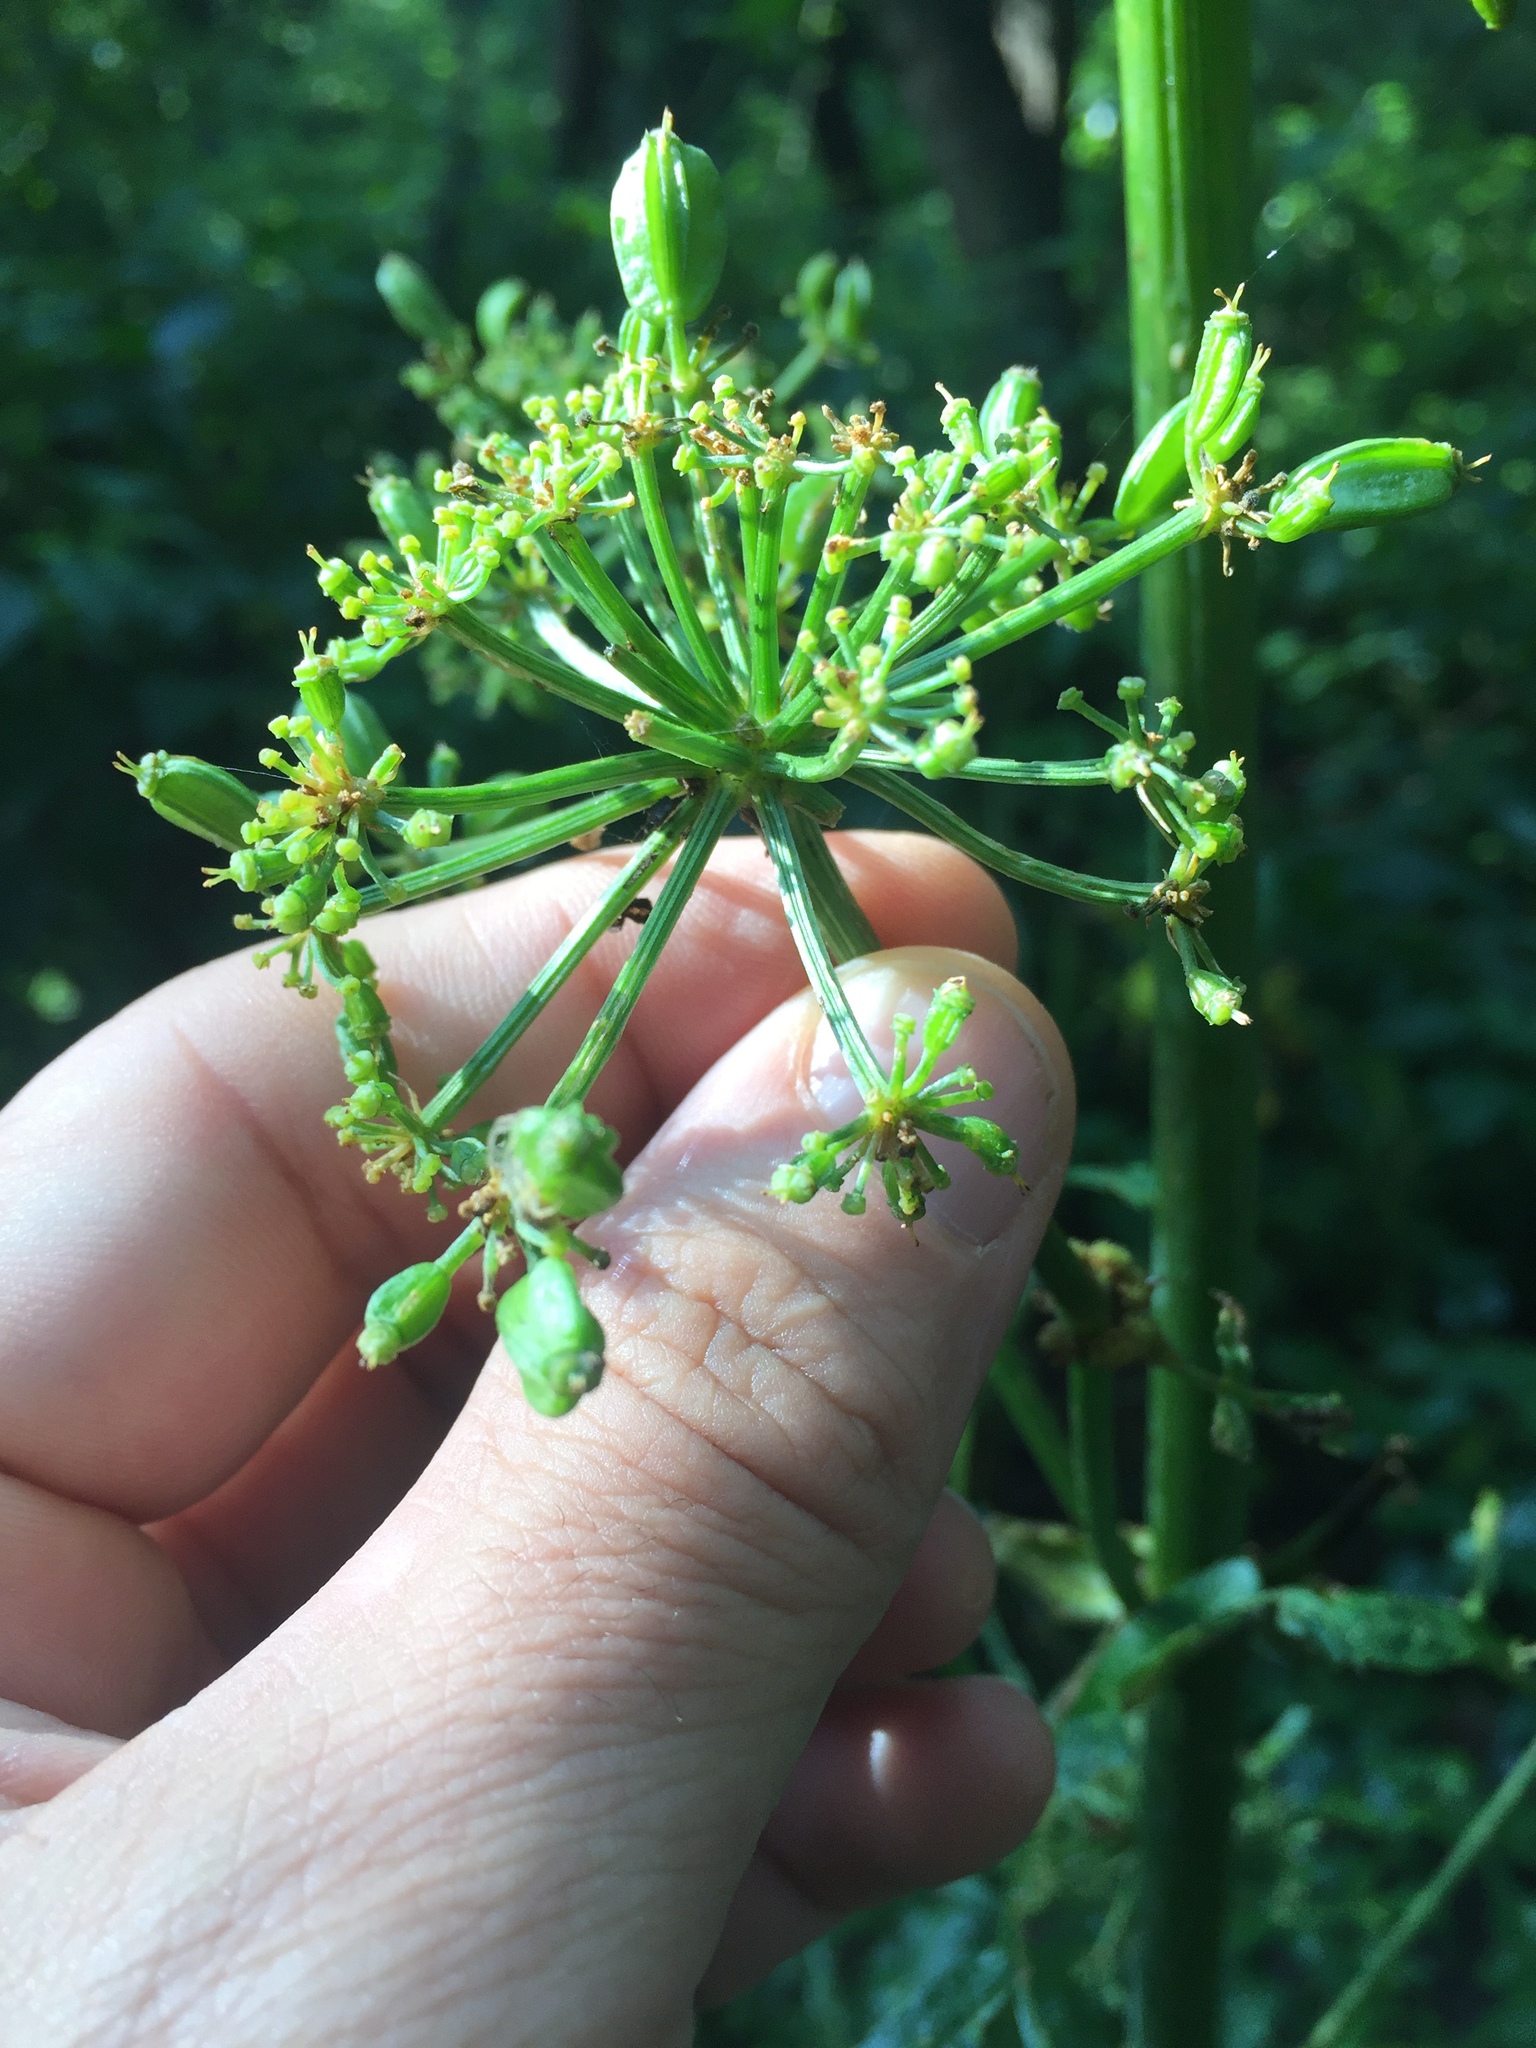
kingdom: Plantae
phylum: Tracheophyta
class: Magnoliopsida
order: Apiales
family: Apiaceae
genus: Prionosciadium
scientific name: Prionosciadium thapsoides
